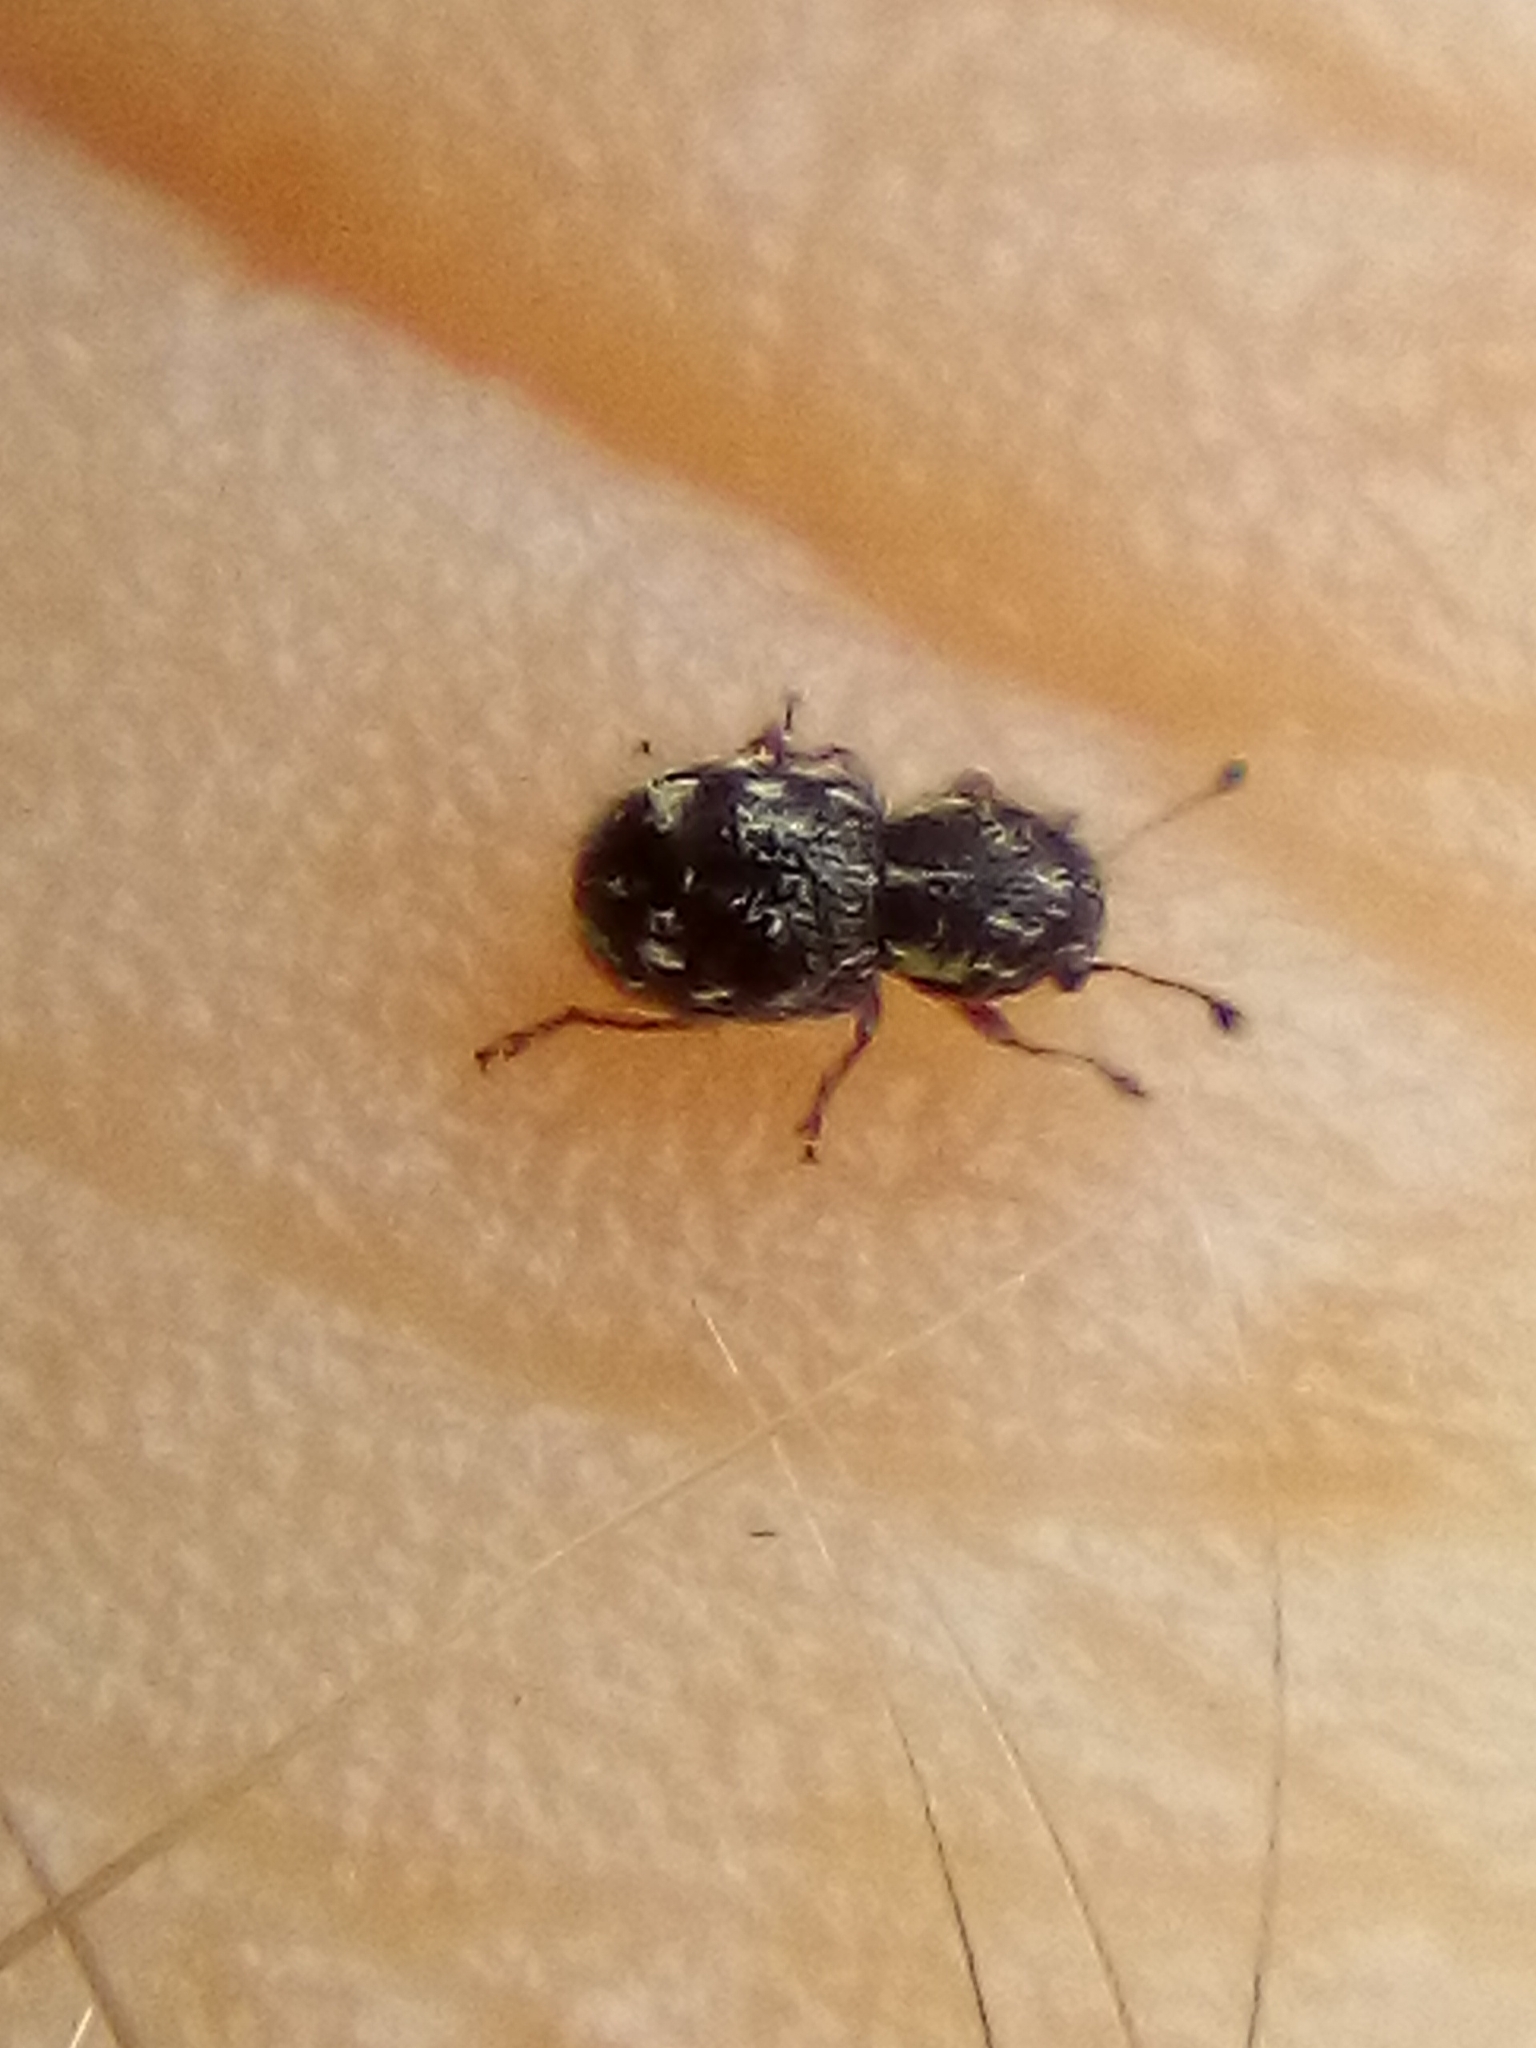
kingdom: Animalia
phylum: Arthropoda
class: Insecta
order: Coleoptera
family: Anthribidae
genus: Dasyanthribus
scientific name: Dasyanthribus purpureus
